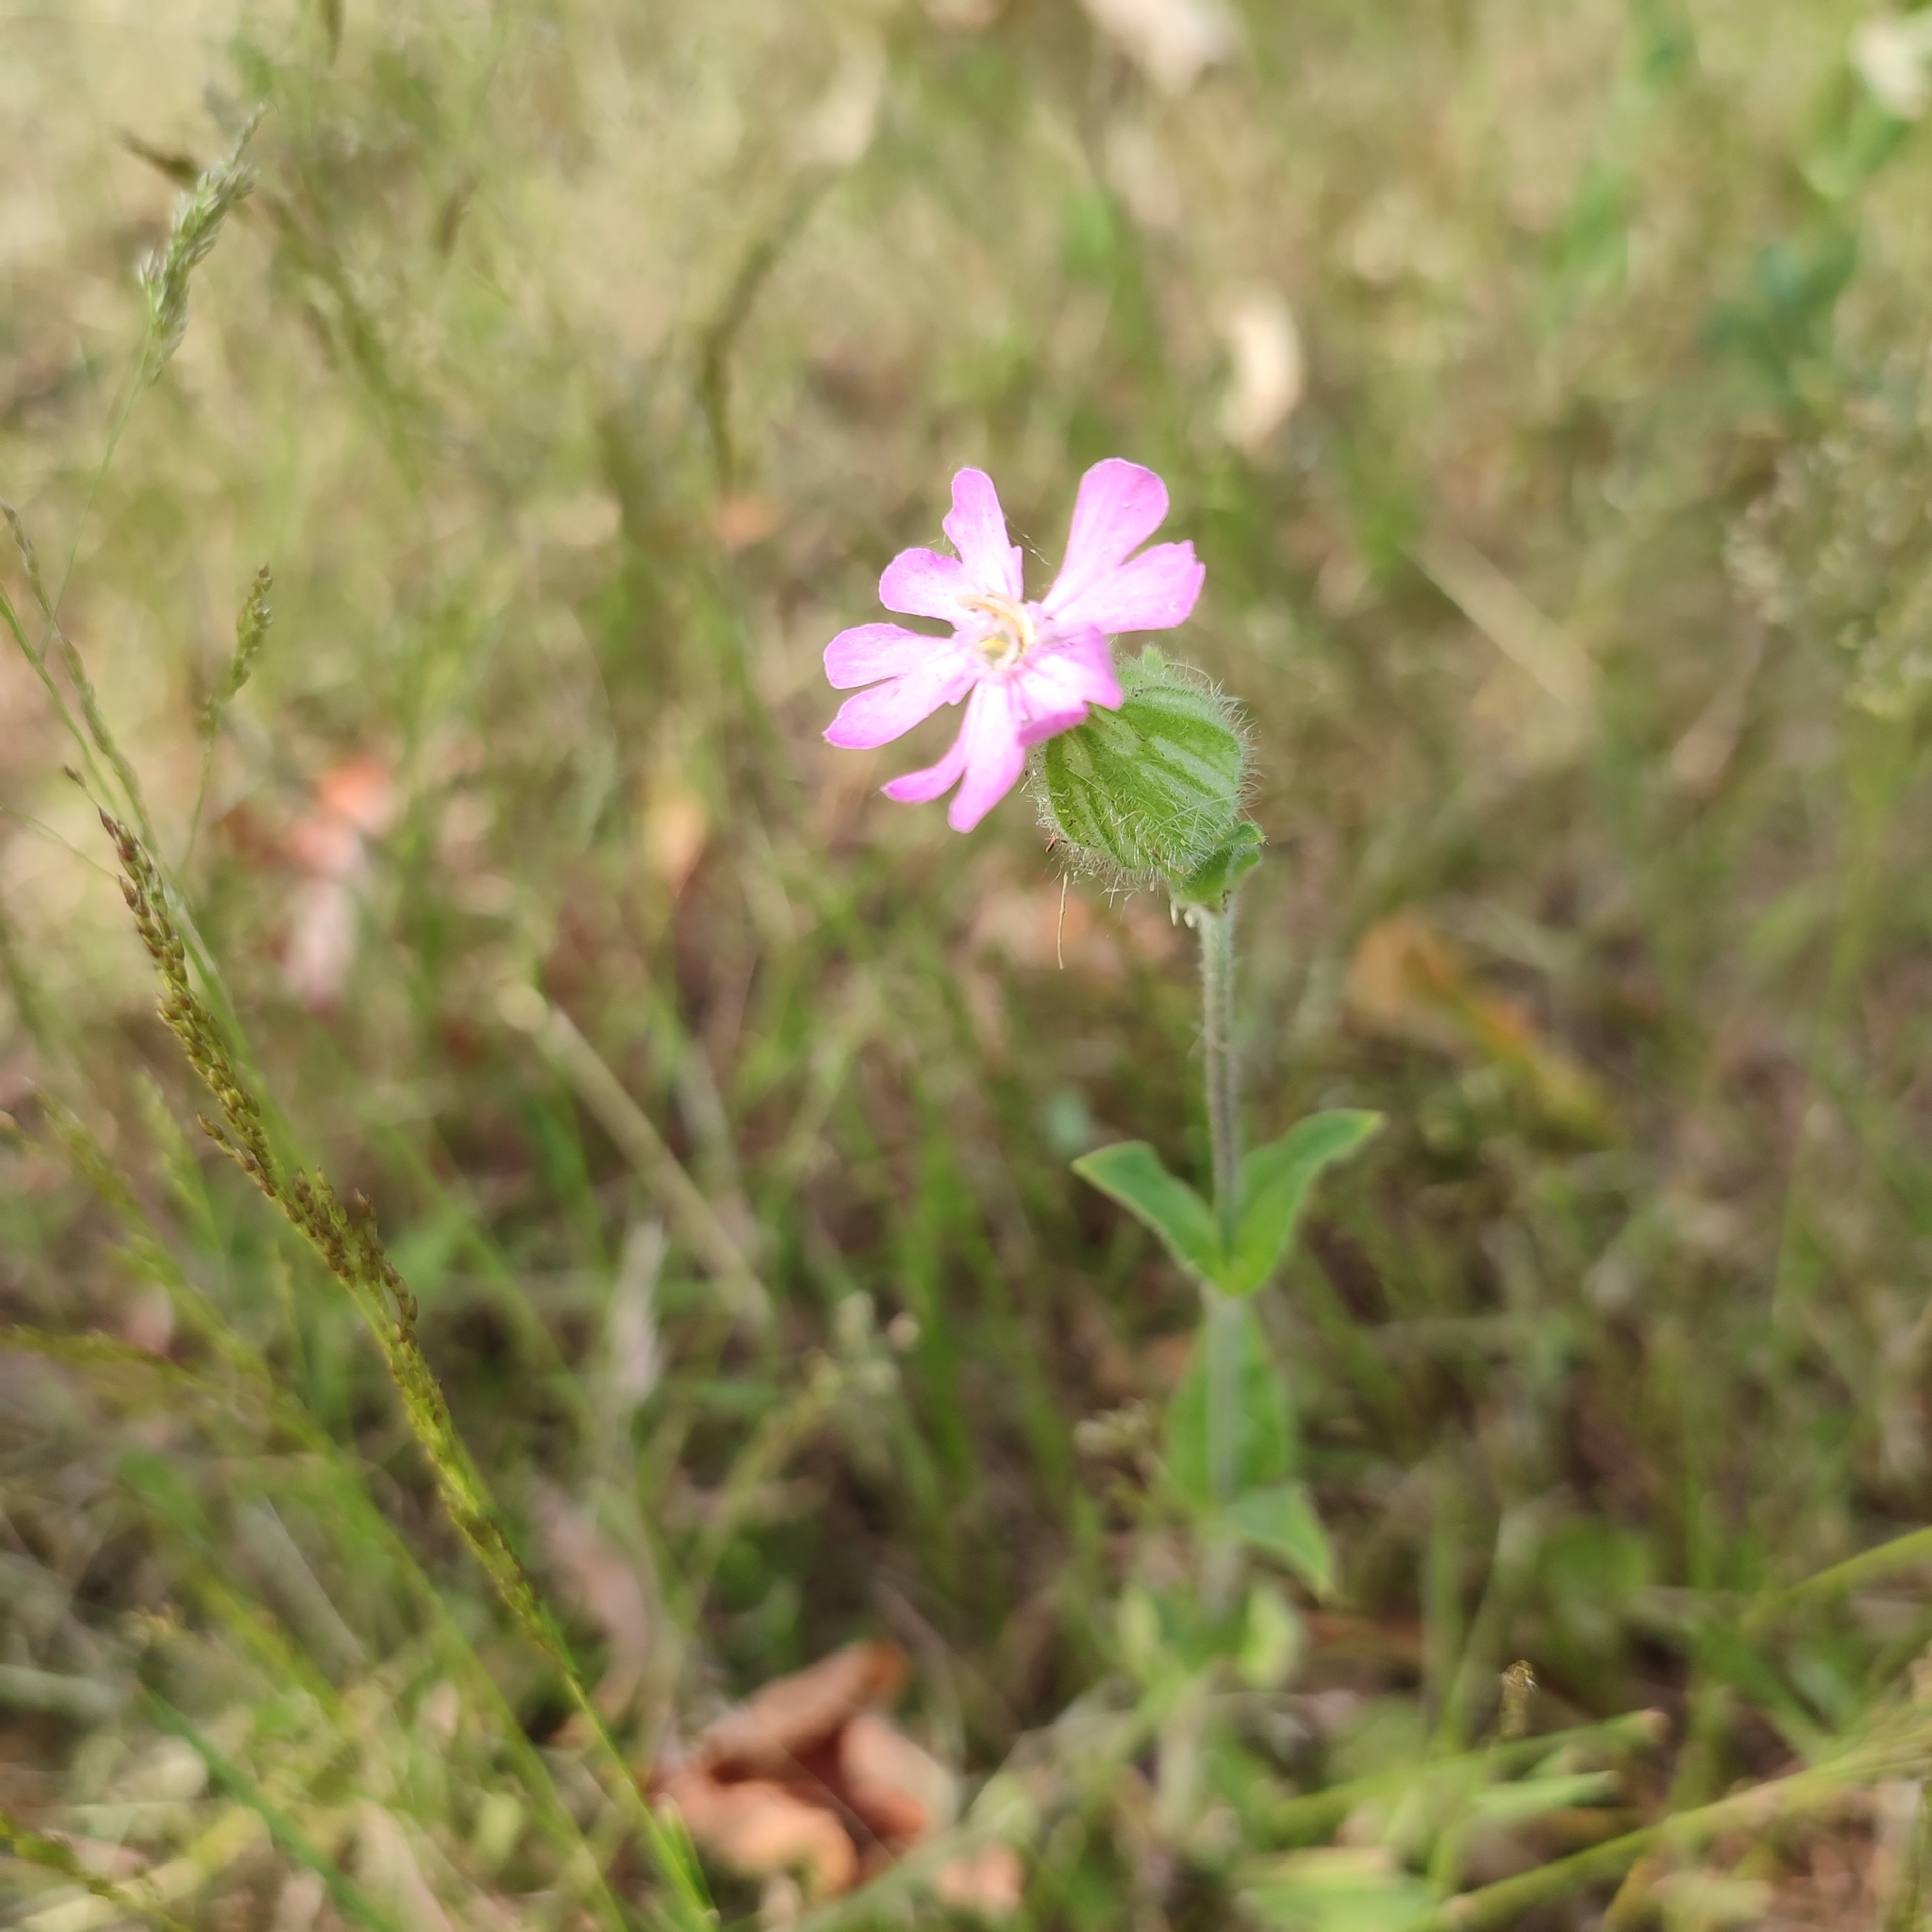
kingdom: Plantae
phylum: Tracheophyta
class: Magnoliopsida
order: Caryophyllales
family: Caryophyllaceae
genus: Silene
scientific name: Silene dioica
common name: Red campion
